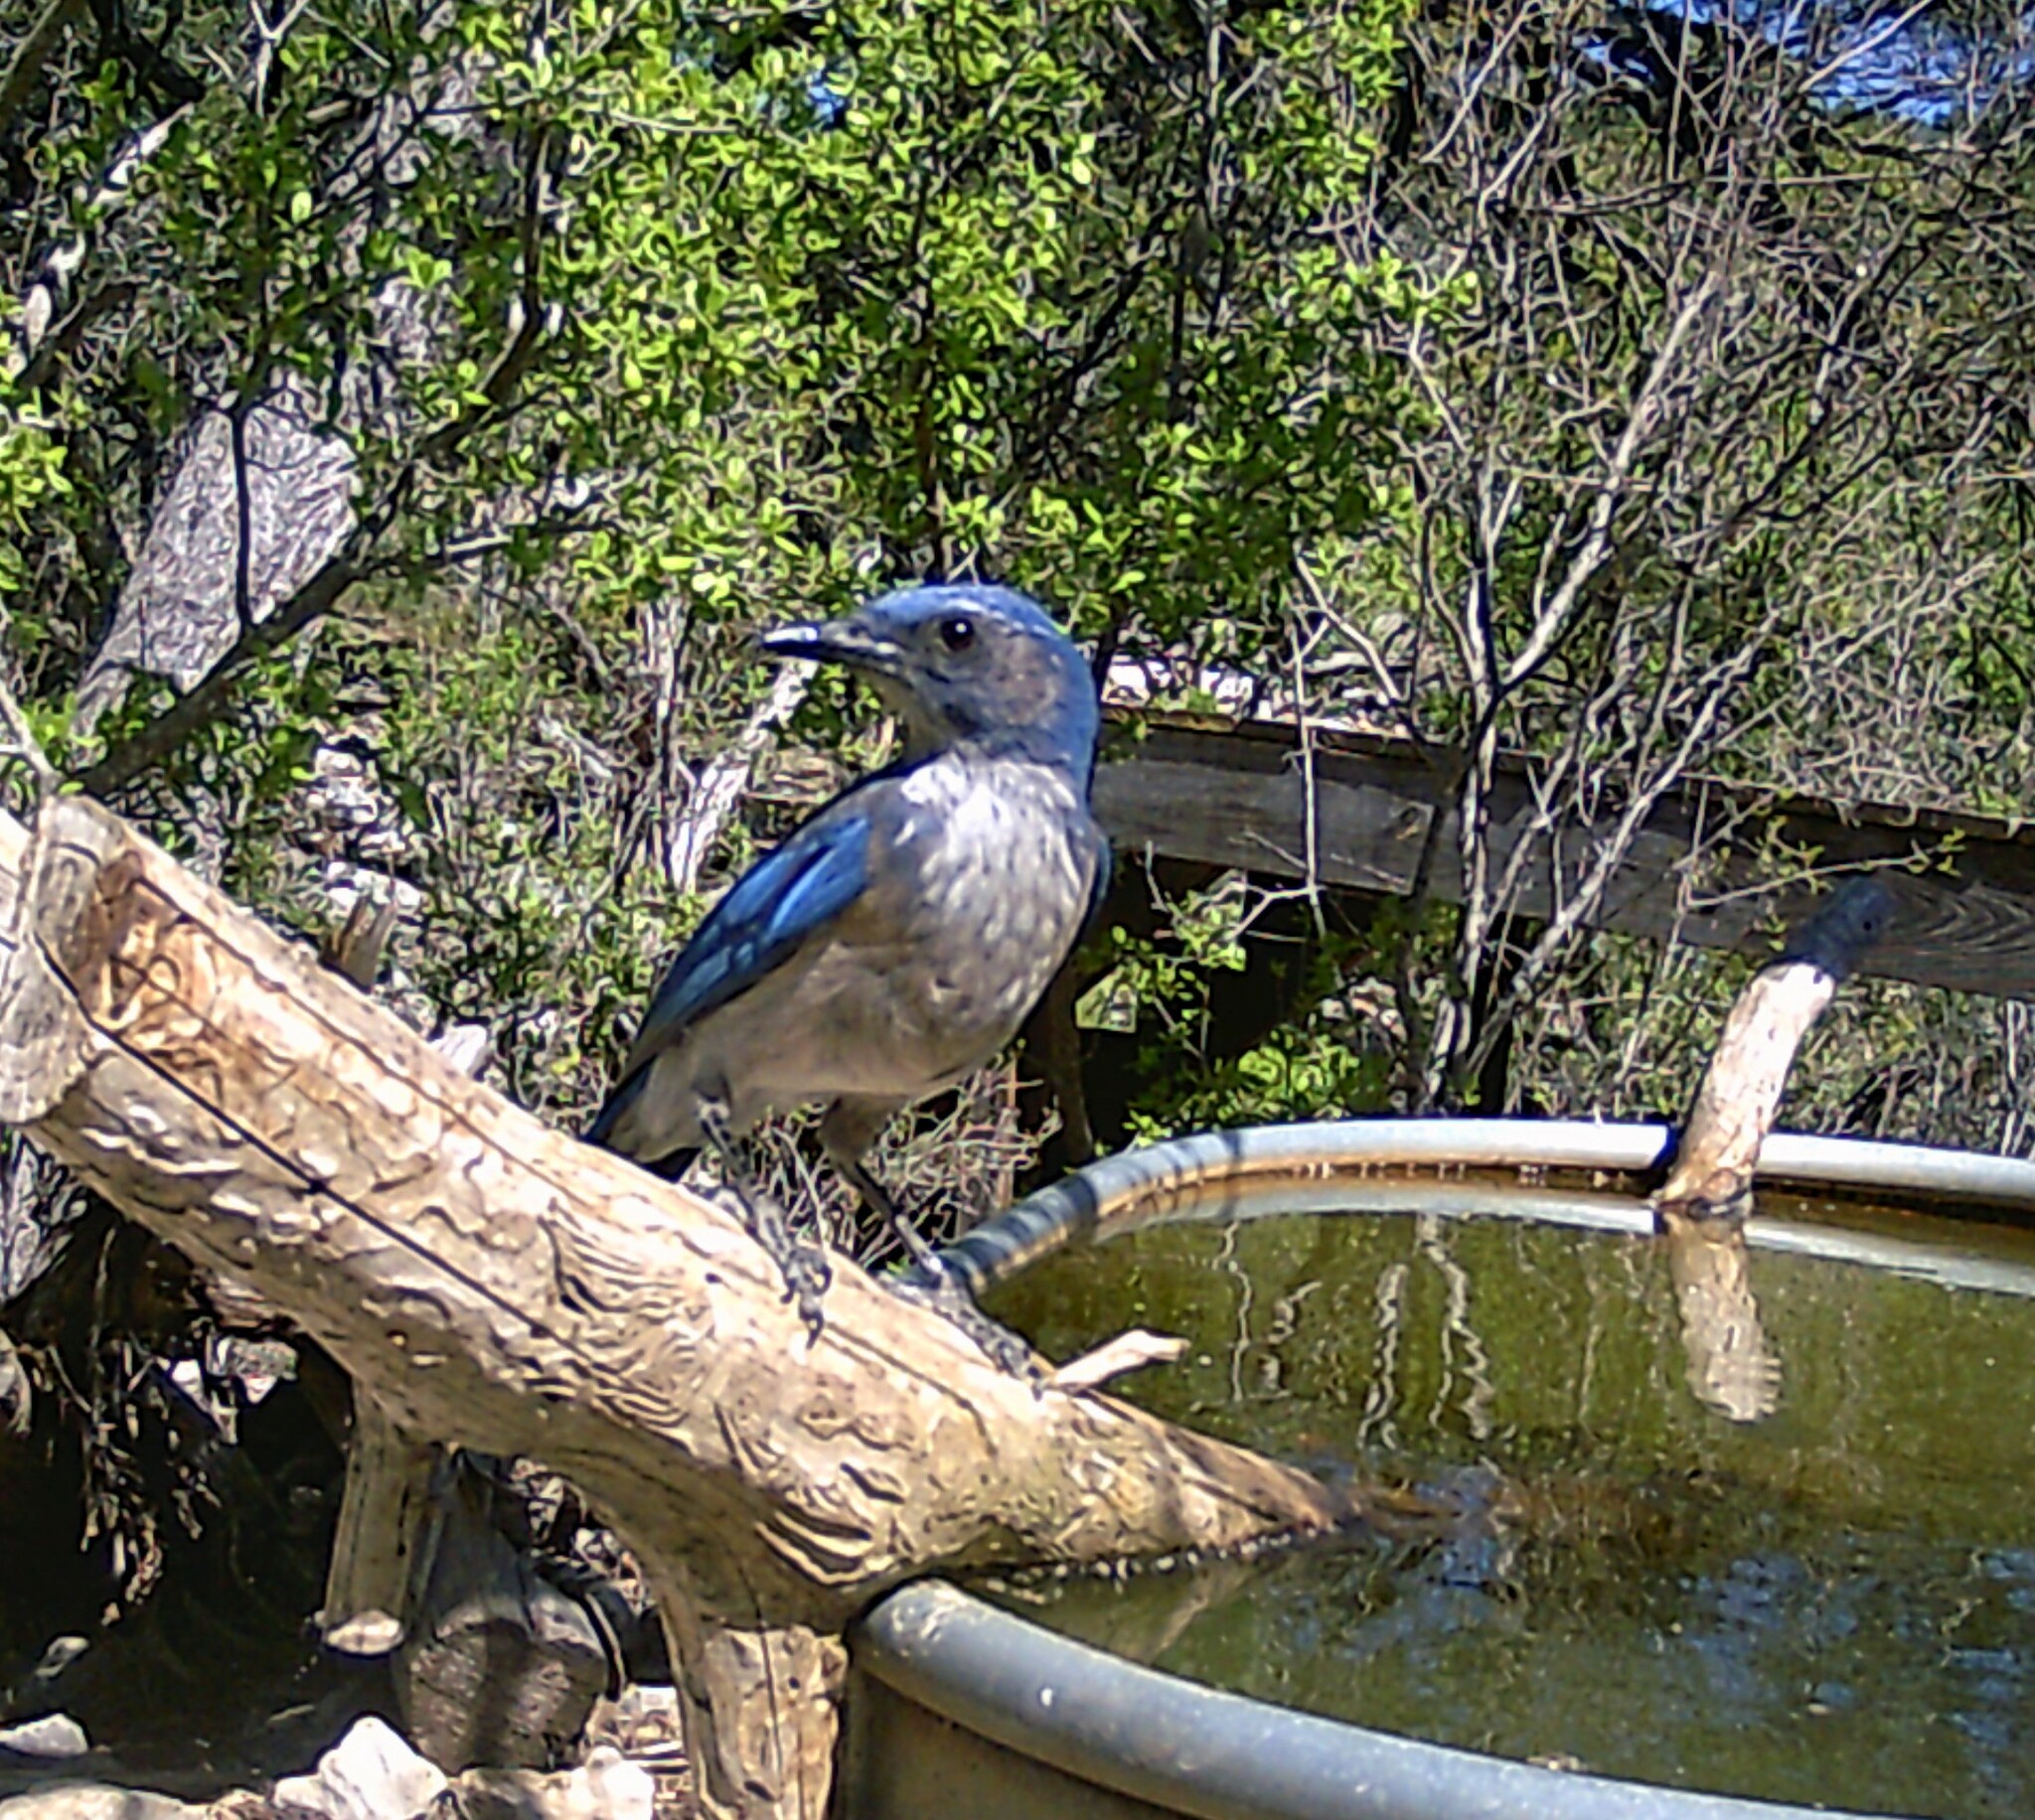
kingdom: Animalia
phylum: Chordata
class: Aves
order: Passeriformes
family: Corvidae
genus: Aphelocoma
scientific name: Aphelocoma woodhouseii
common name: Woodhouse's scrub-jay
